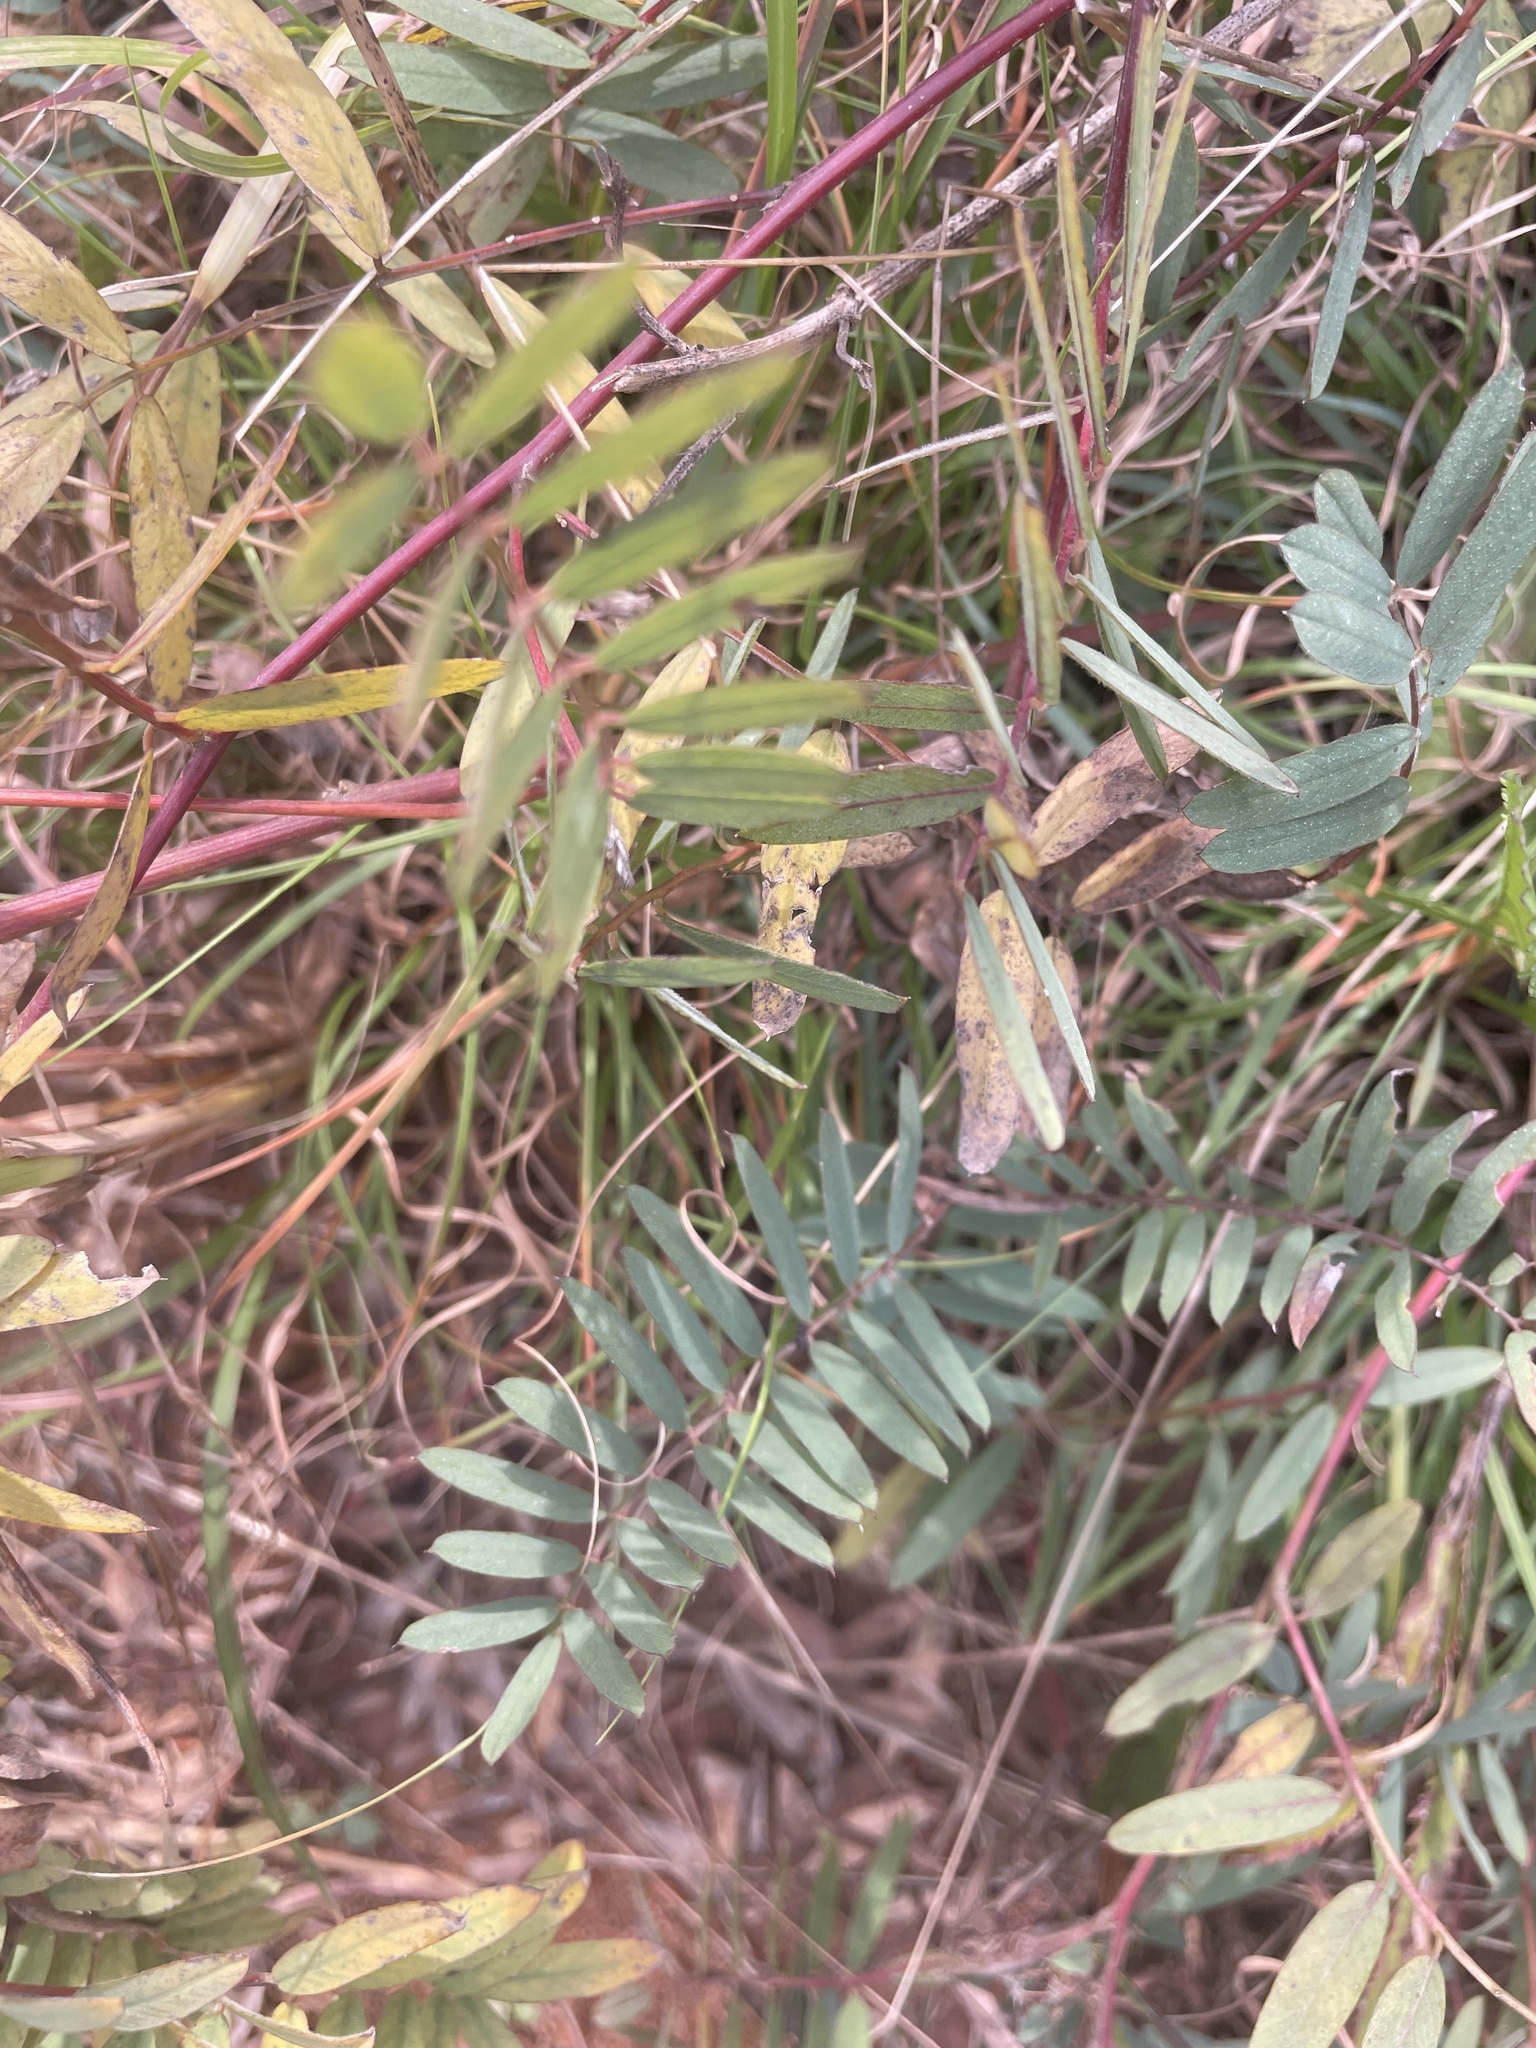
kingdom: Plantae
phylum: Tracheophyta
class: Magnoliopsida
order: Fabales
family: Fabaceae
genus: Tephrosia
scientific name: Tephrosia virginiana
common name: Rabbit-pea
